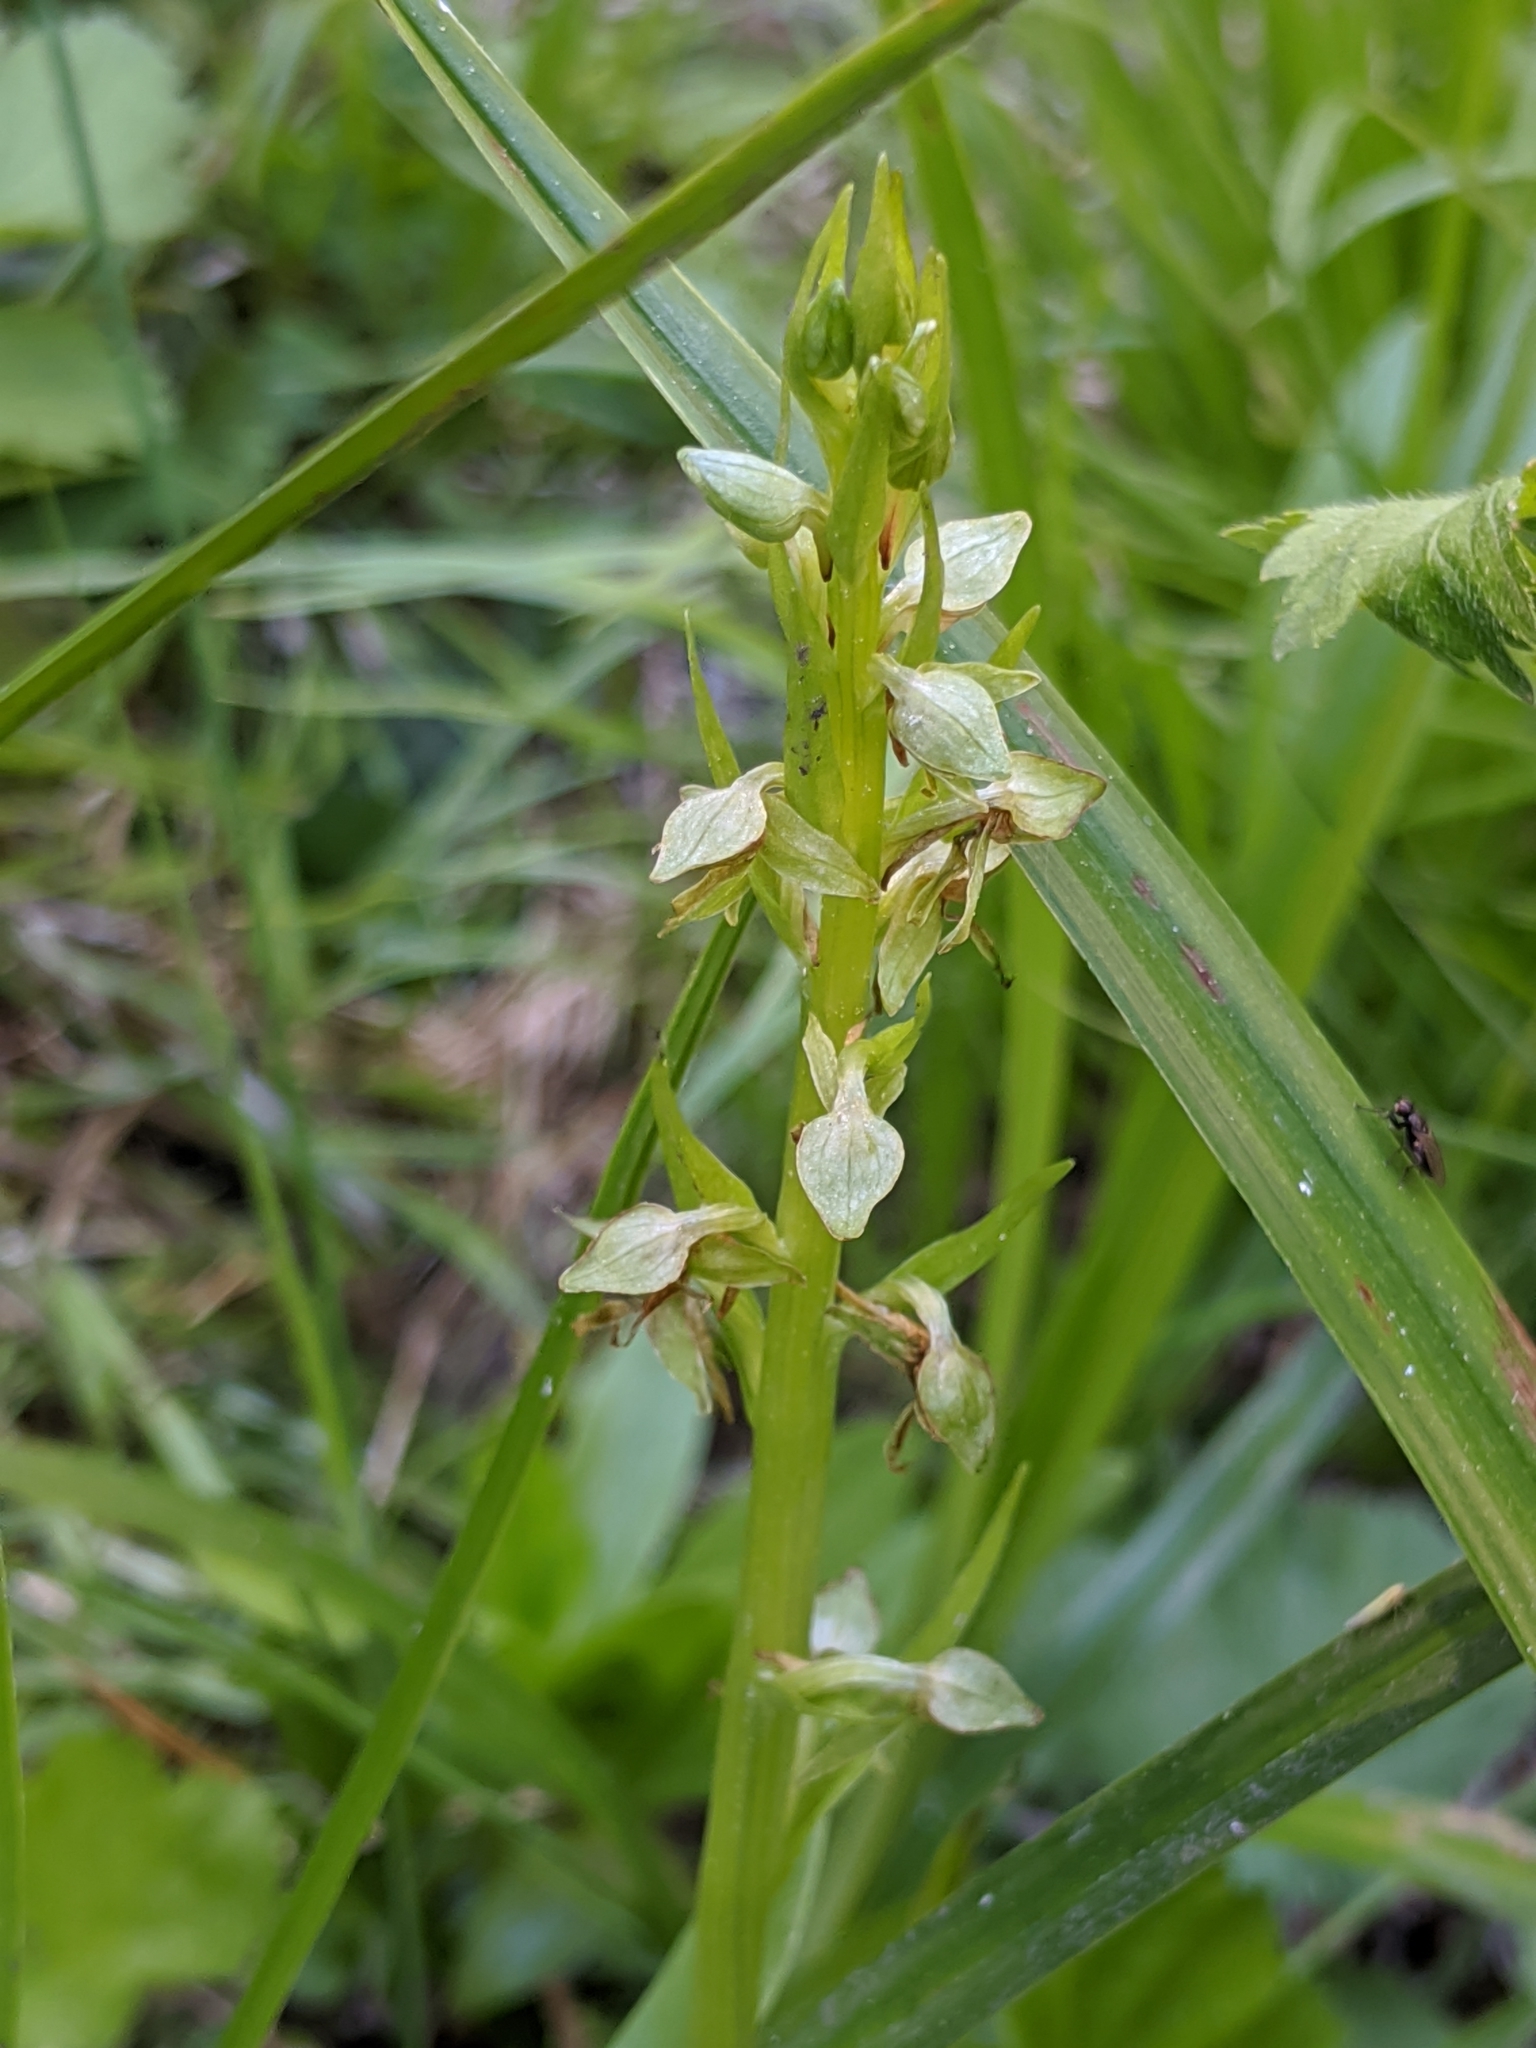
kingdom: Plantae
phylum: Tracheophyta
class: Liliopsida
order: Asparagales
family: Orchidaceae
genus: Platanthera
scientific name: Platanthera sparsiflora
